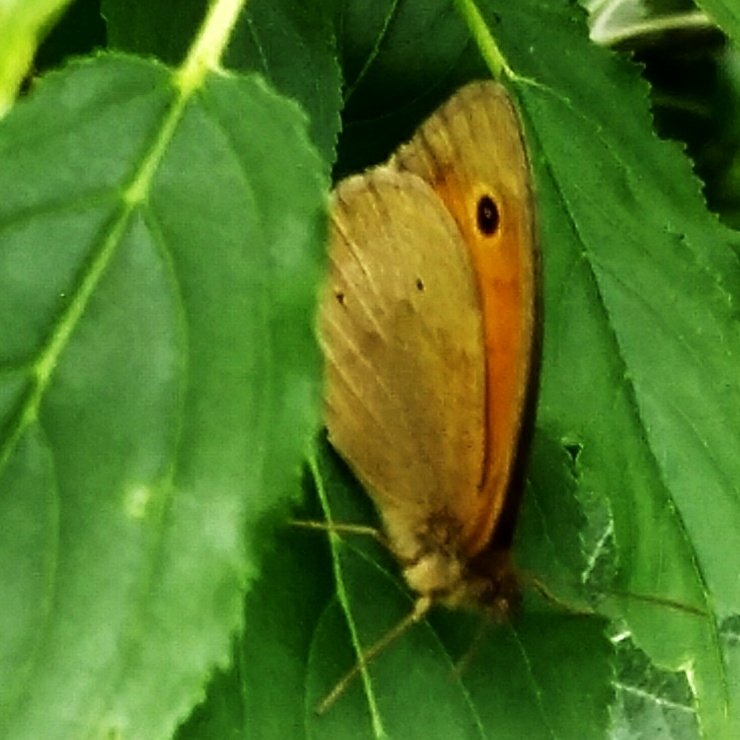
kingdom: Animalia
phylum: Arthropoda
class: Insecta
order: Lepidoptera
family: Nymphalidae
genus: Maniola
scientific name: Maniola jurtina
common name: Meadow brown
